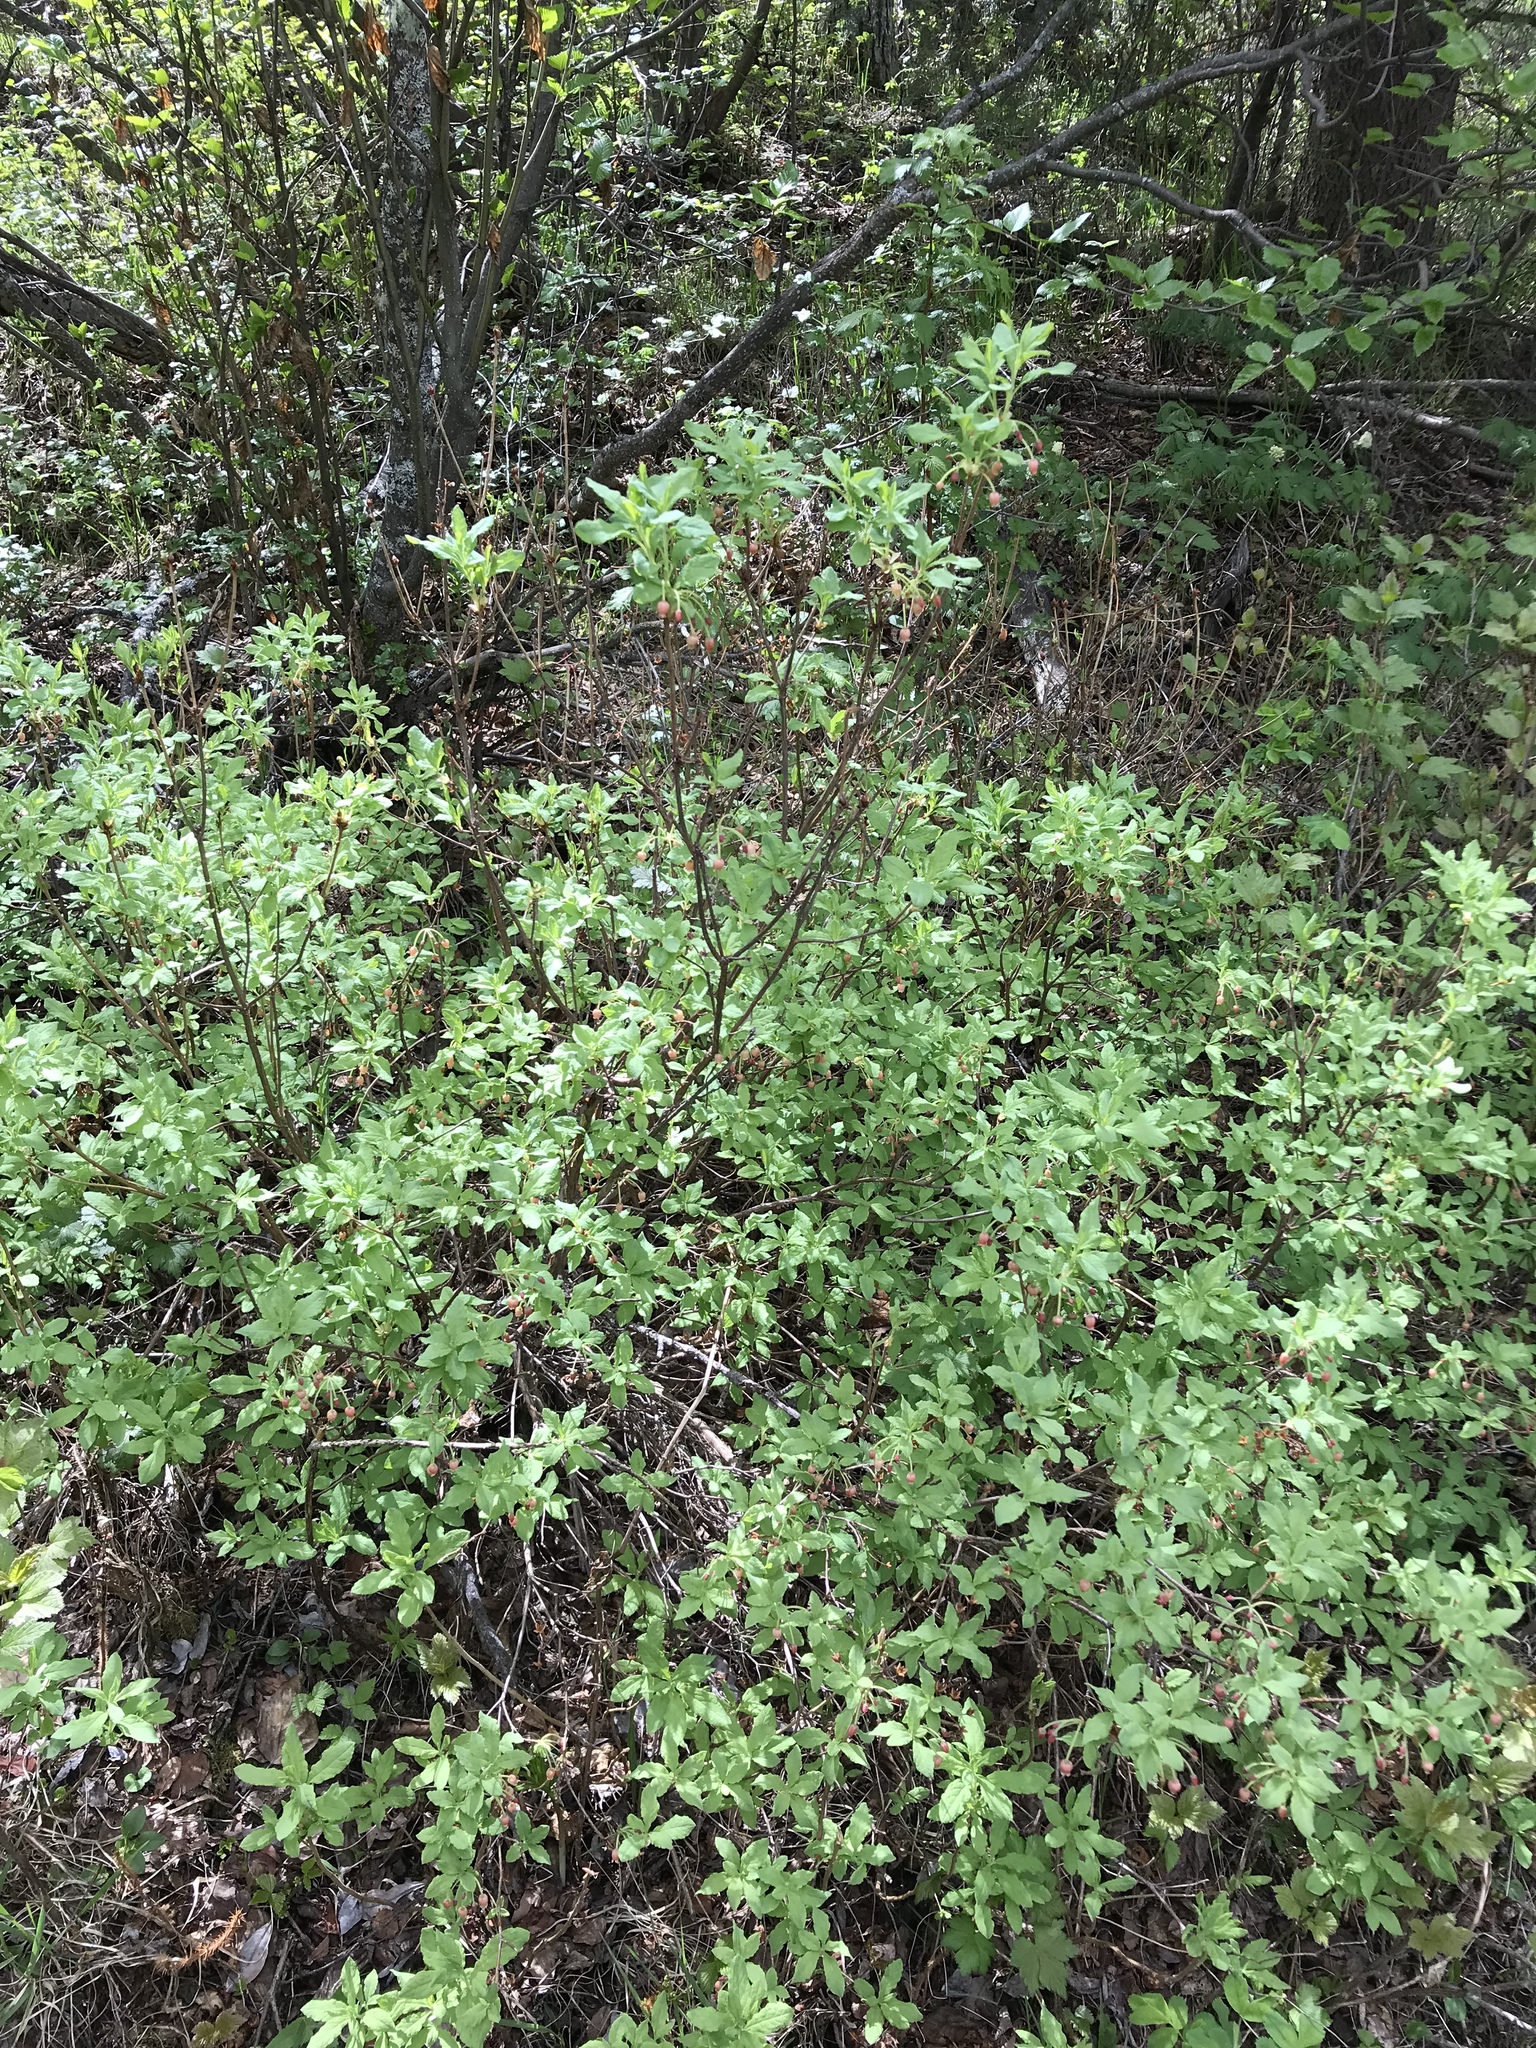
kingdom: Plantae
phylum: Tracheophyta
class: Magnoliopsida
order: Ericales
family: Ericaceae
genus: Rhododendron
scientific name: Rhododendron menziesii
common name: Pacific menziesia
